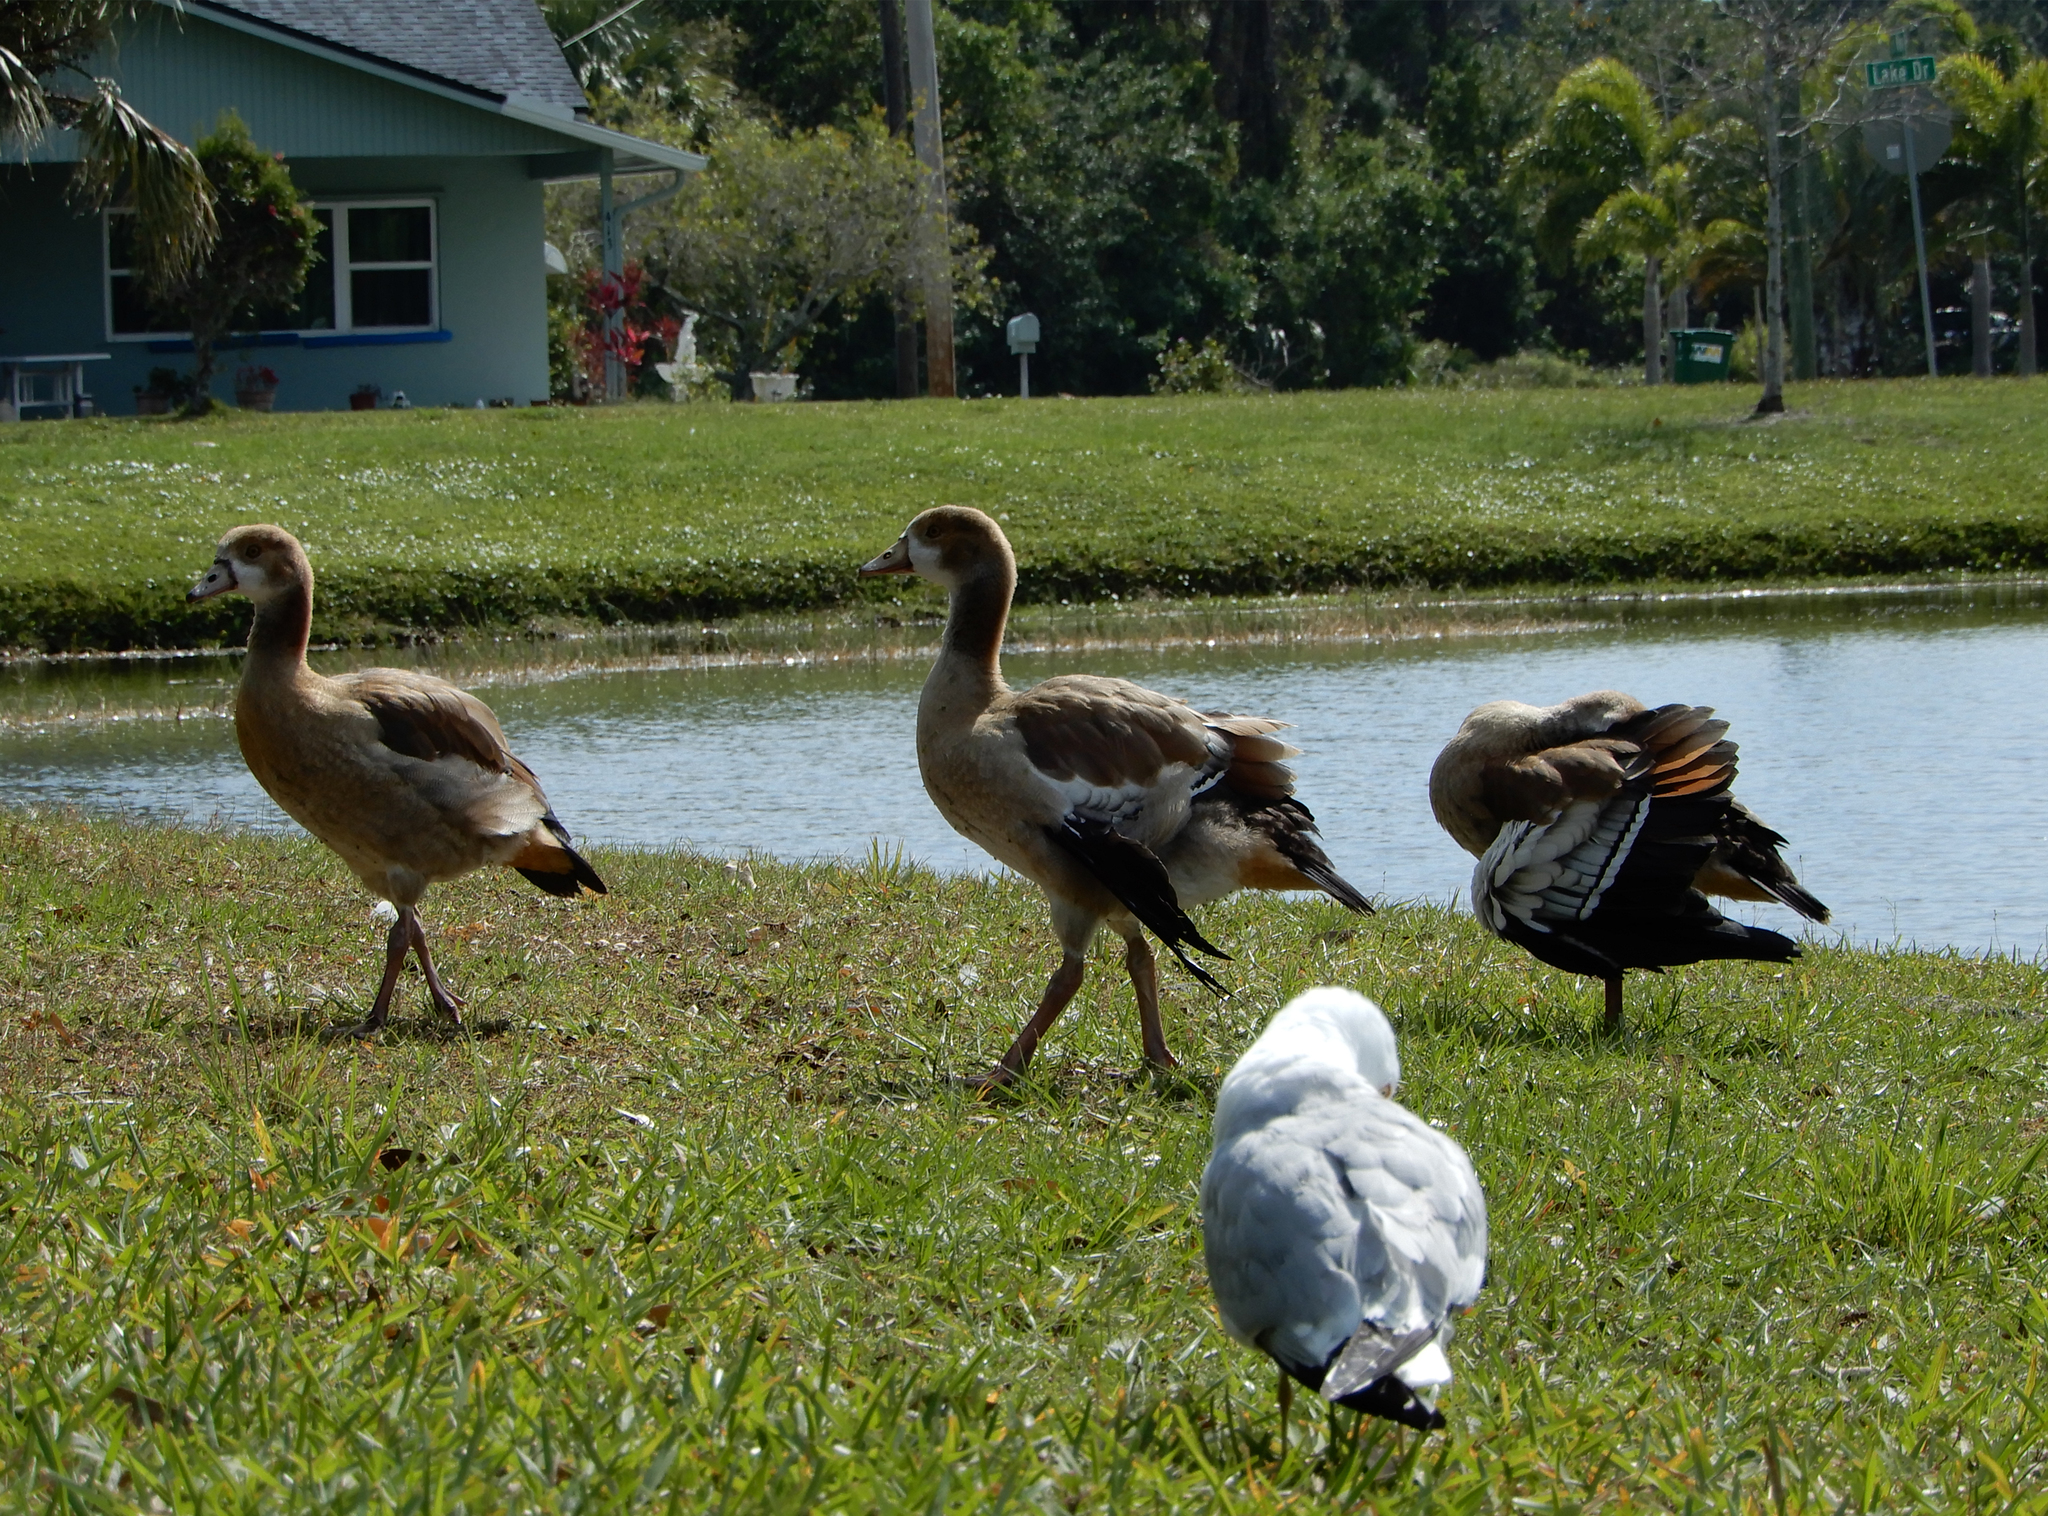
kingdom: Animalia
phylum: Chordata
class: Aves
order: Anseriformes
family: Anatidae
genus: Alopochen
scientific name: Alopochen aegyptiaca
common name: Egyptian goose
